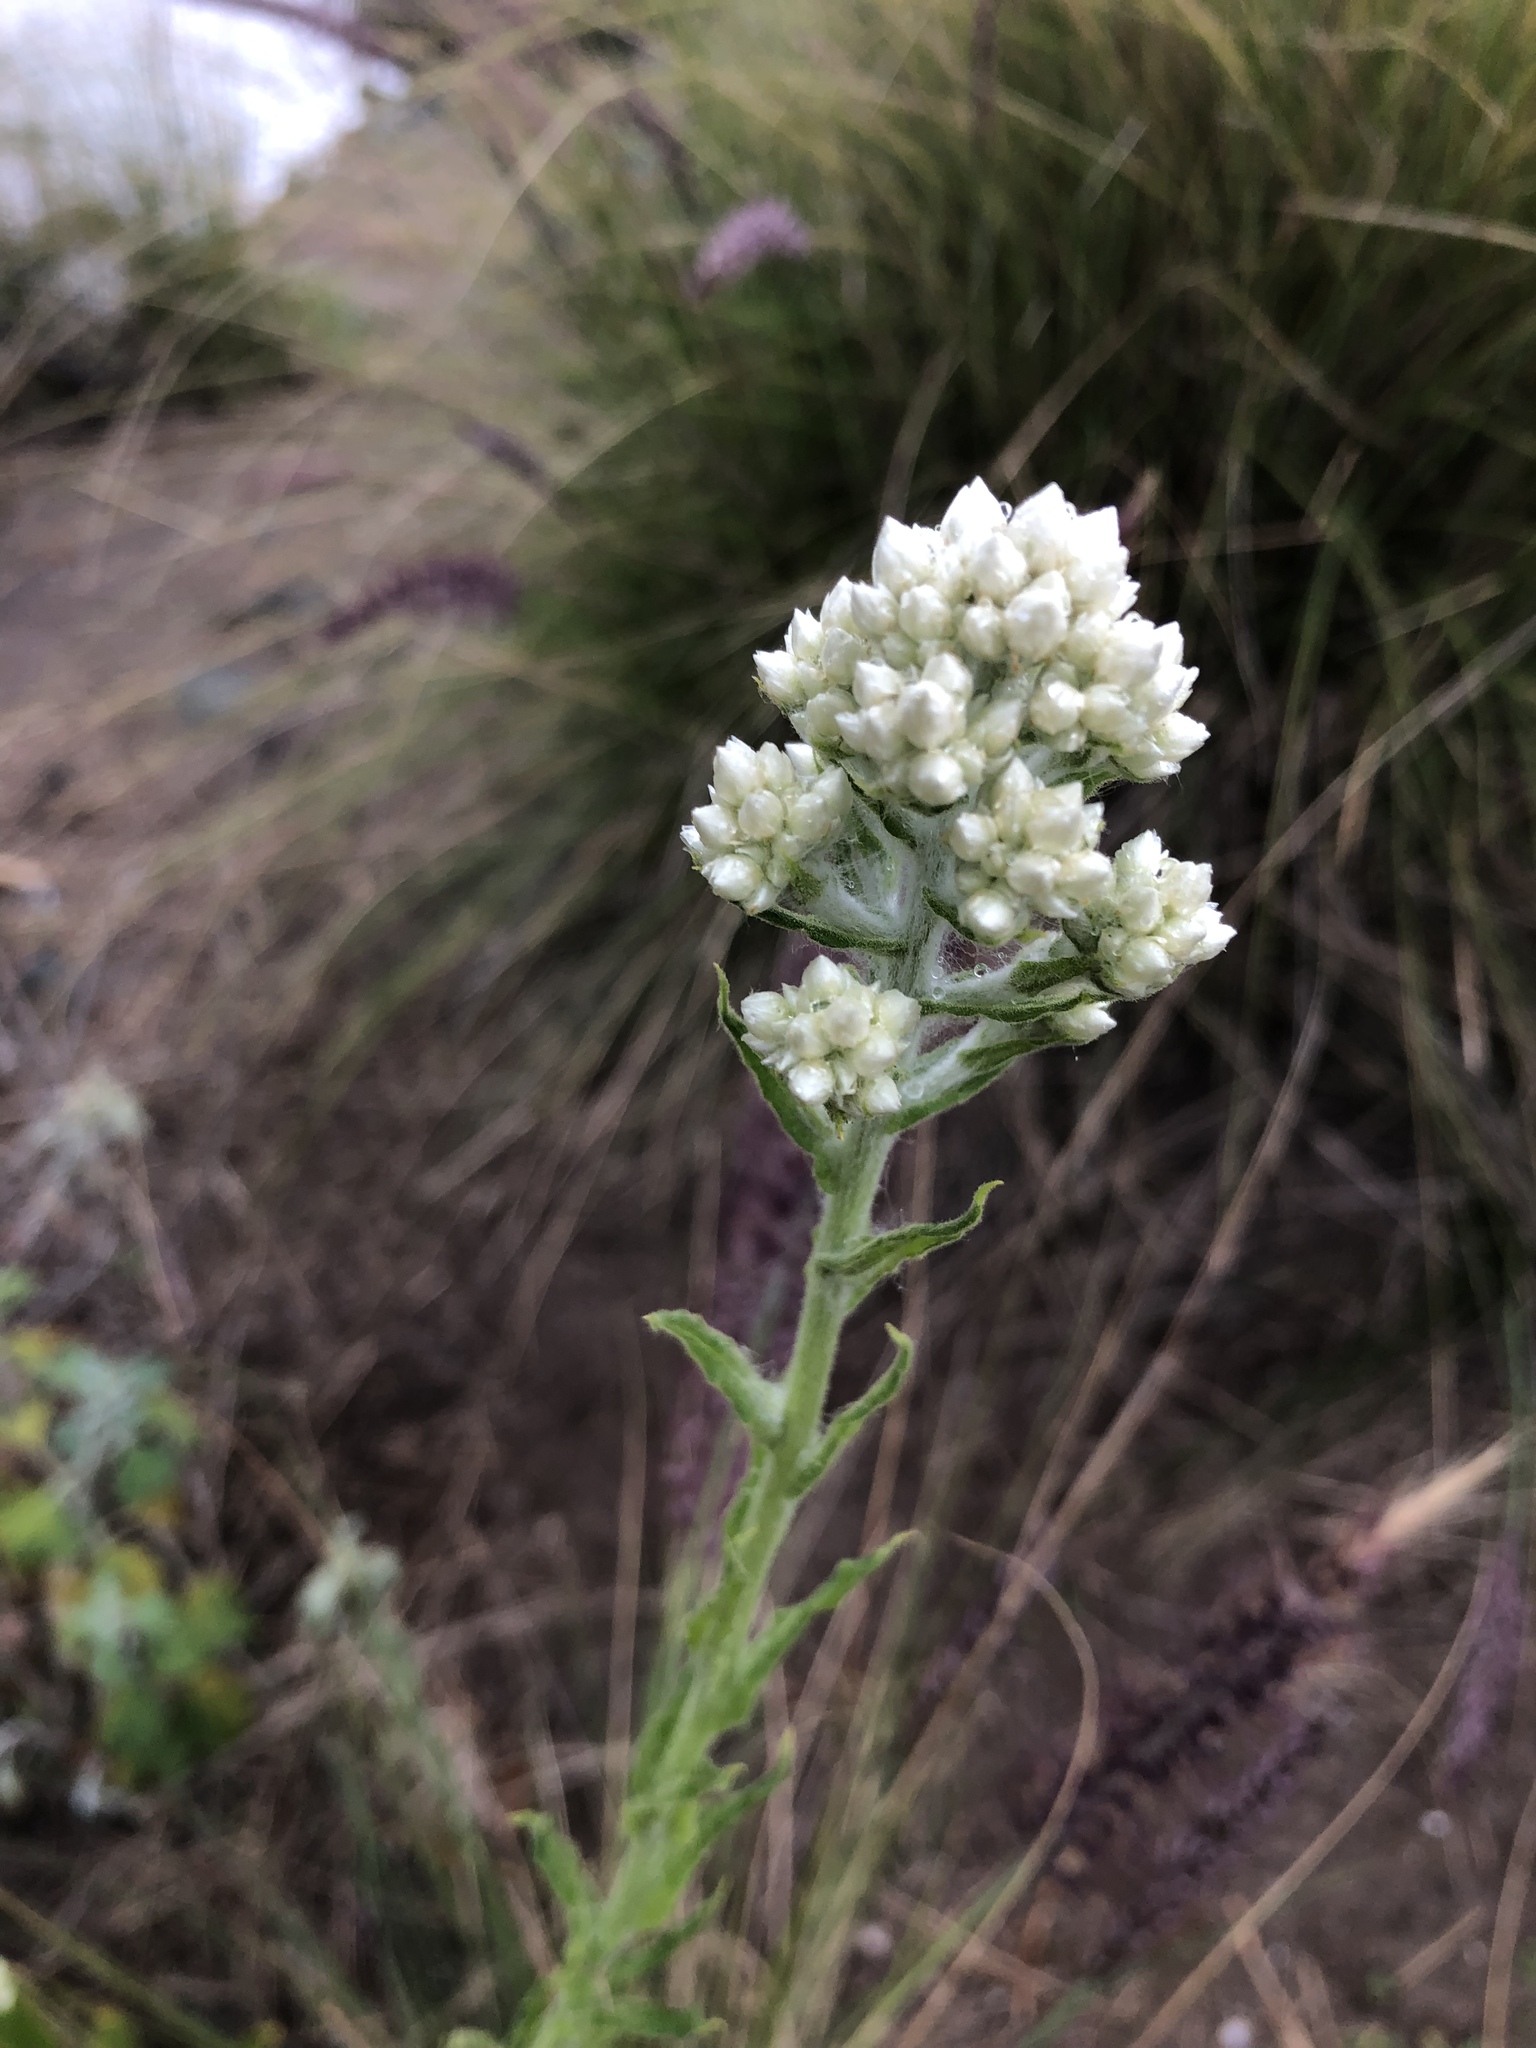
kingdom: Plantae
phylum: Tracheophyta
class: Magnoliopsida
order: Asterales
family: Asteraceae
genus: Pseudognaphalium
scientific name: Pseudognaphalium biolettii
